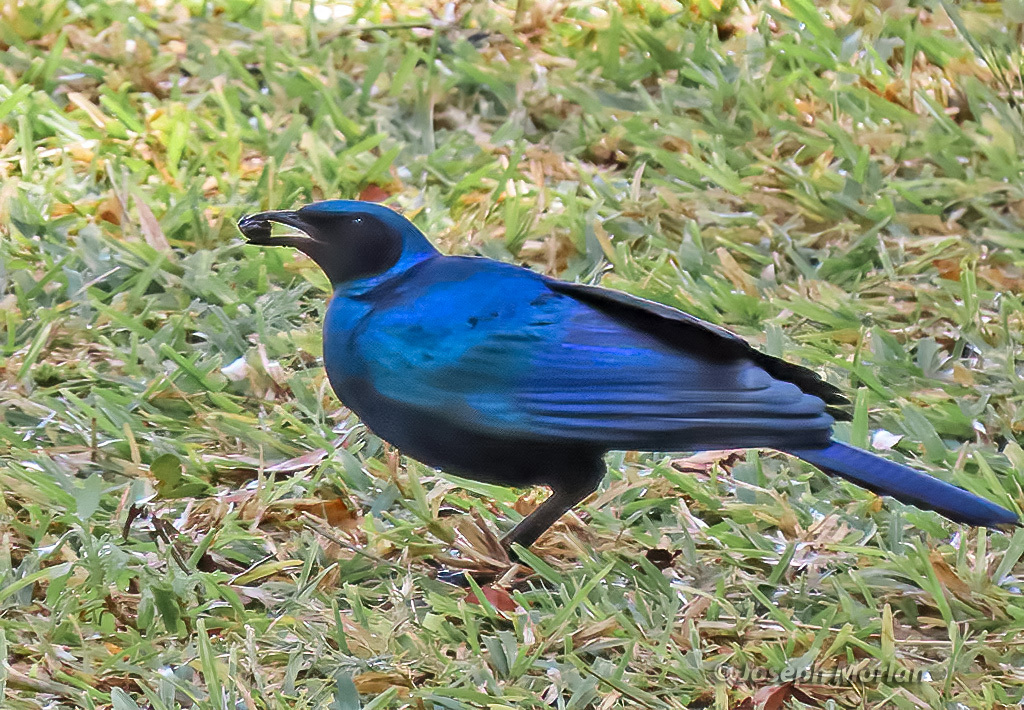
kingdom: Animalia
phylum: Chordata
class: Aves
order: Passeriformes
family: Sturnidae
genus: Lamprotornis
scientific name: Lamprotornis australis
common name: Burchell's starling
